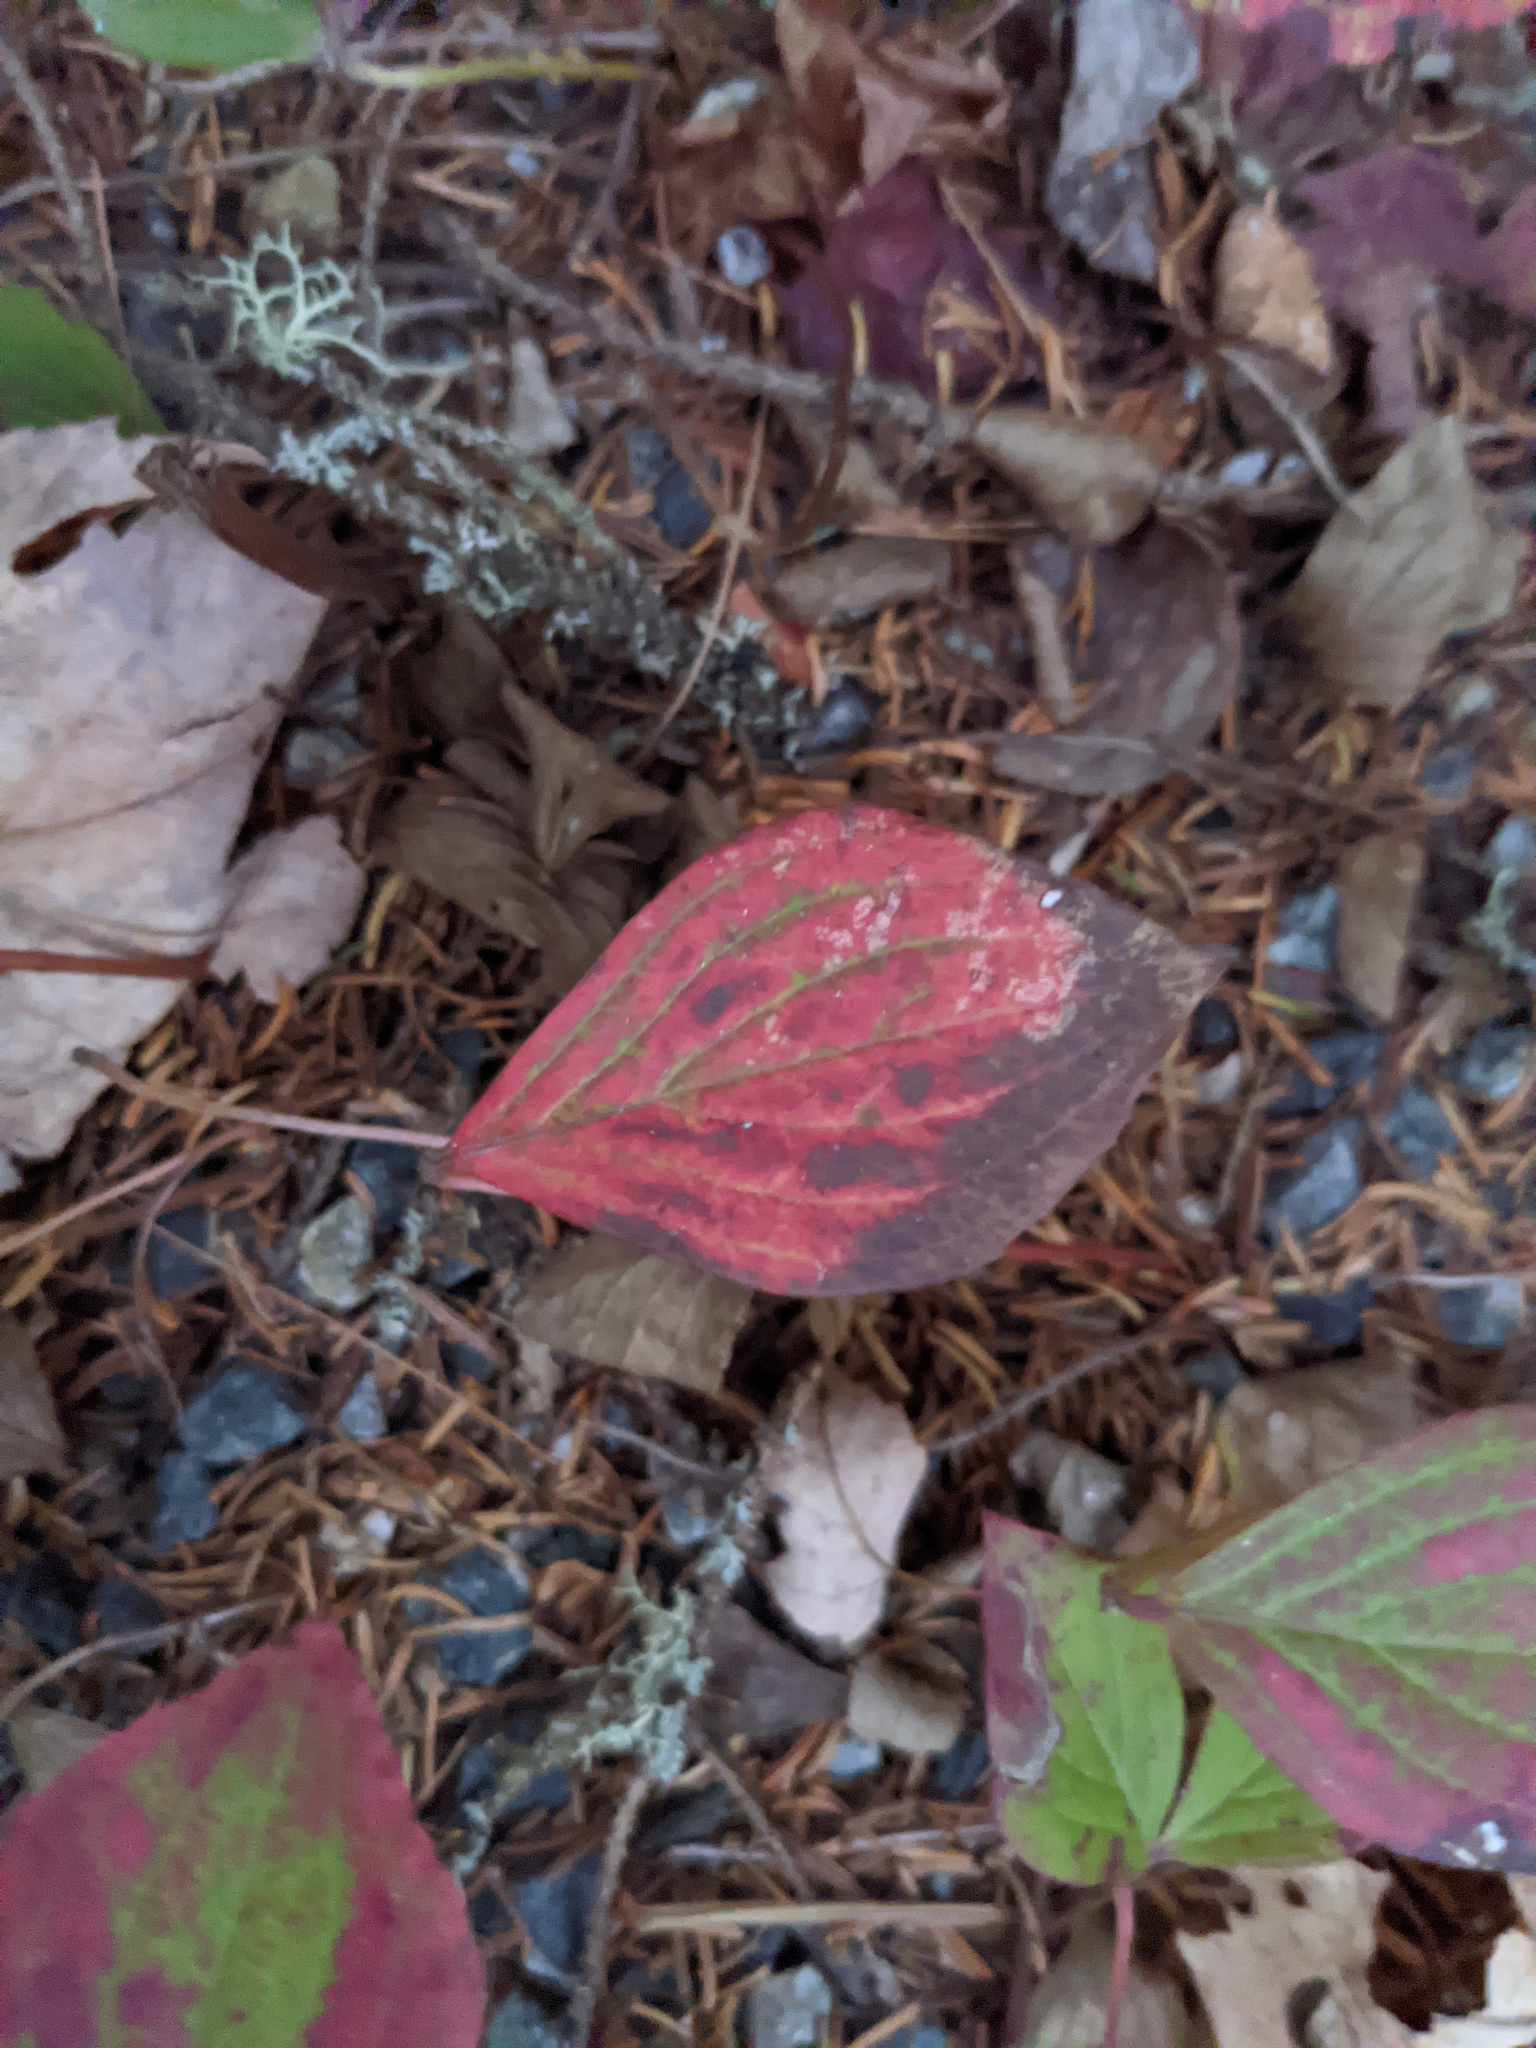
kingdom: Plantae
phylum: Tracheophyta
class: Magnoliopsida
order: Cornales
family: Cornaceae
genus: Cornus
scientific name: Cornus canadensis
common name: Creeping dogwood
